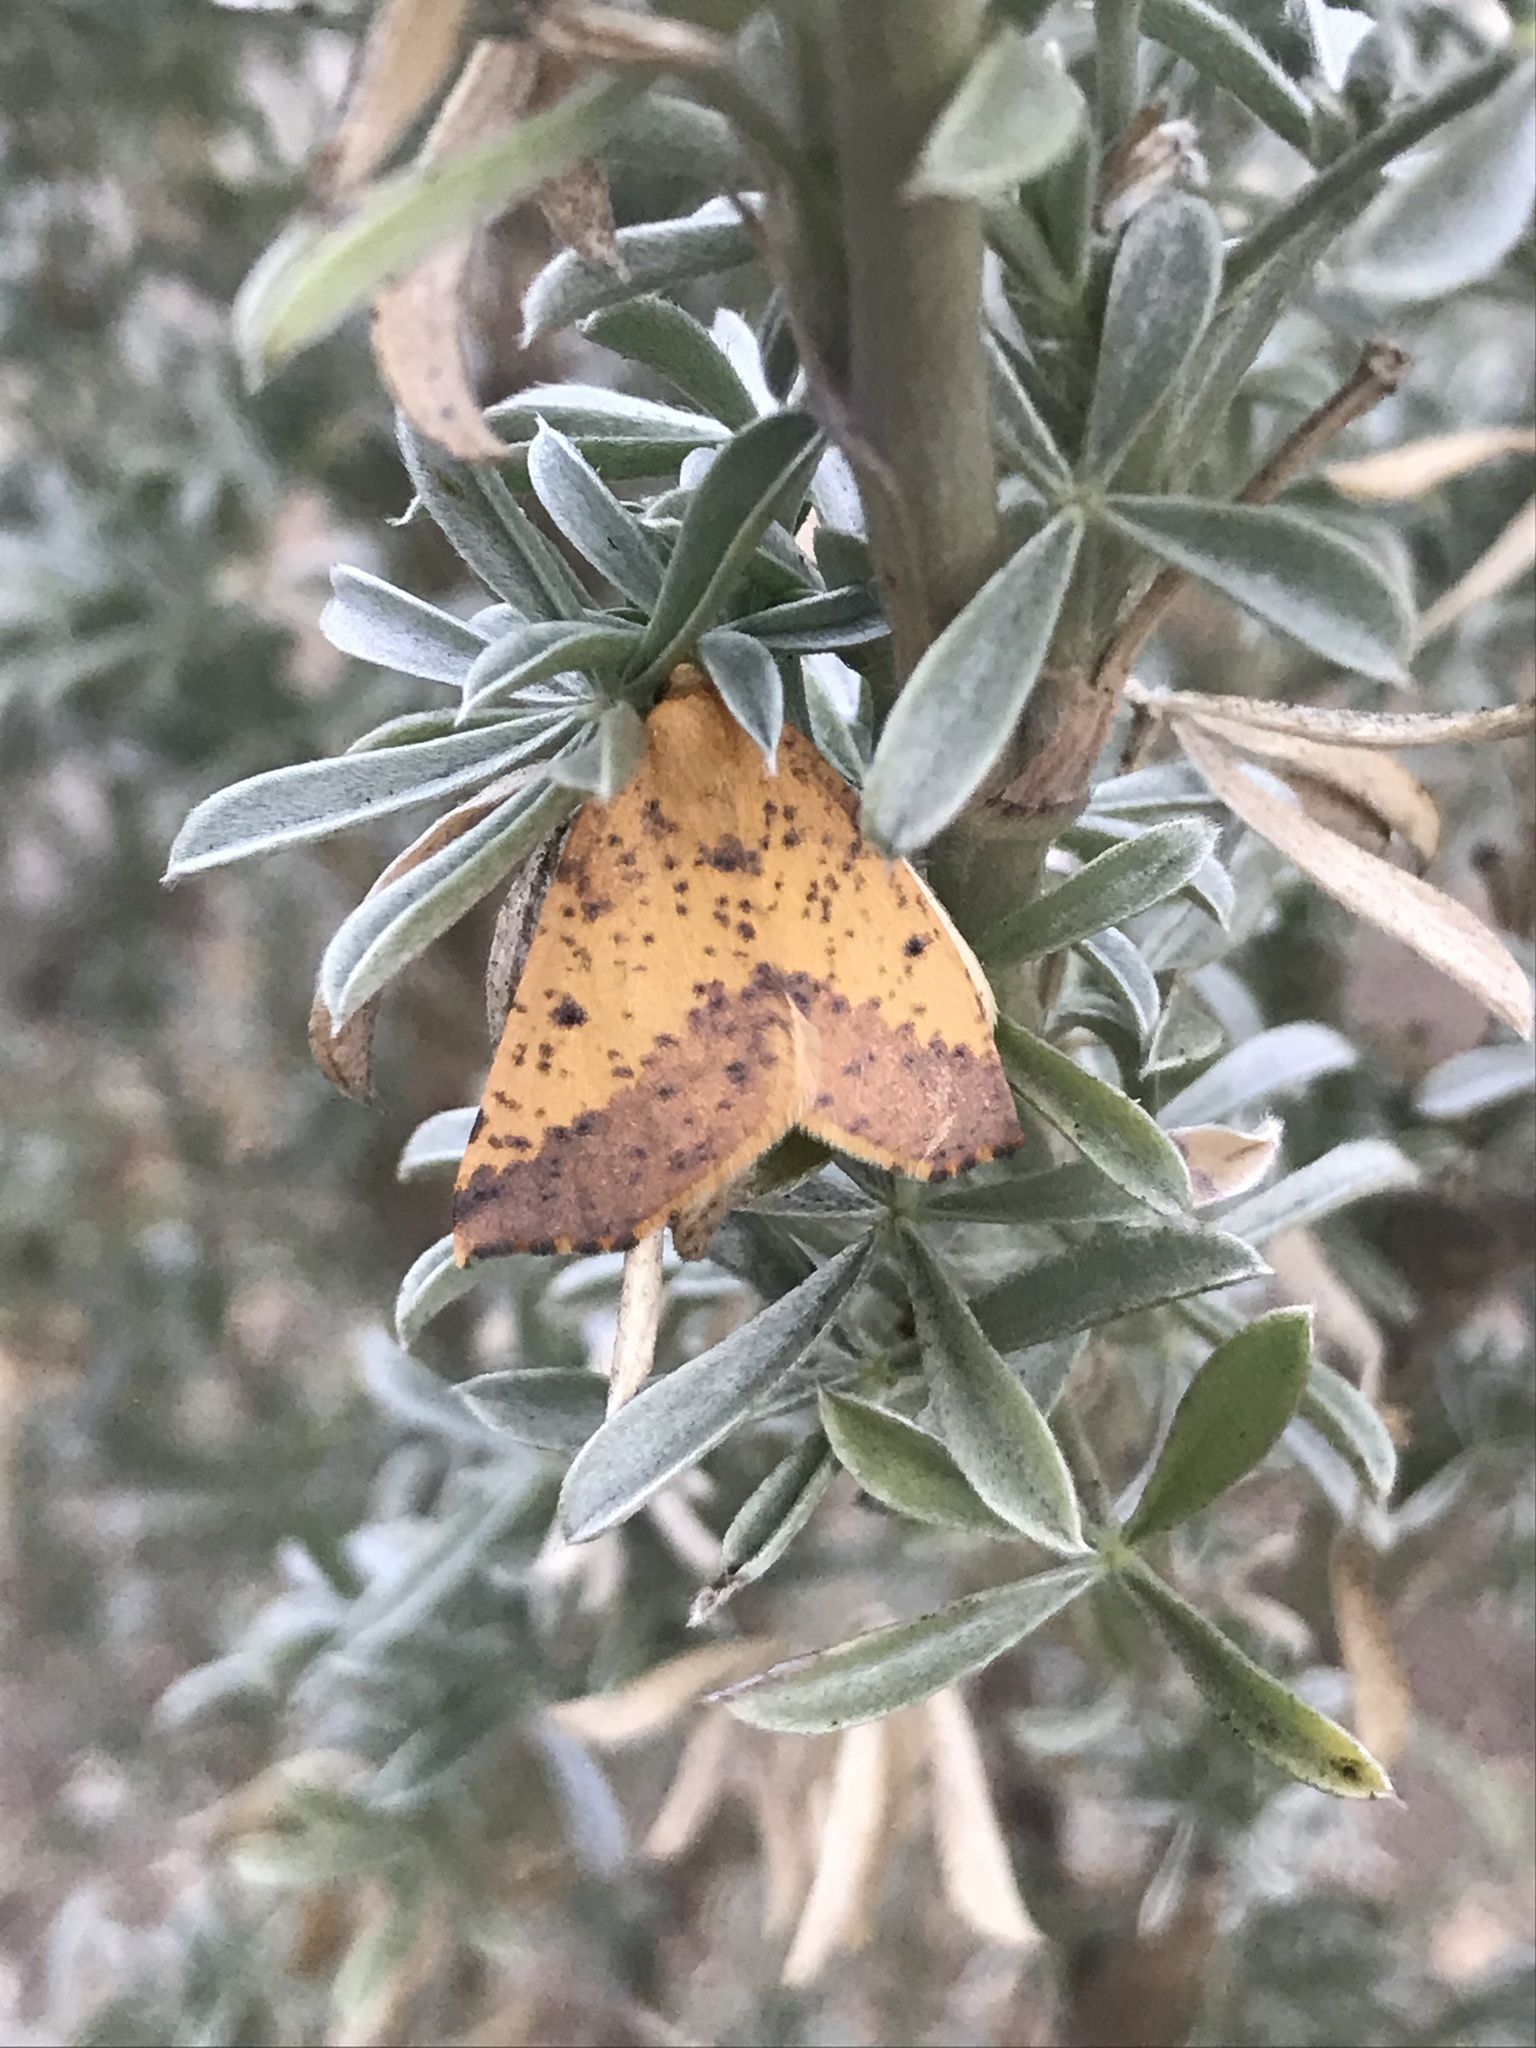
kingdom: Animalia
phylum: Arthropoda
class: Insecta
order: Lepidoptera
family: Geometridae
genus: Neoterpes
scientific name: Neoterpes edwardsata
